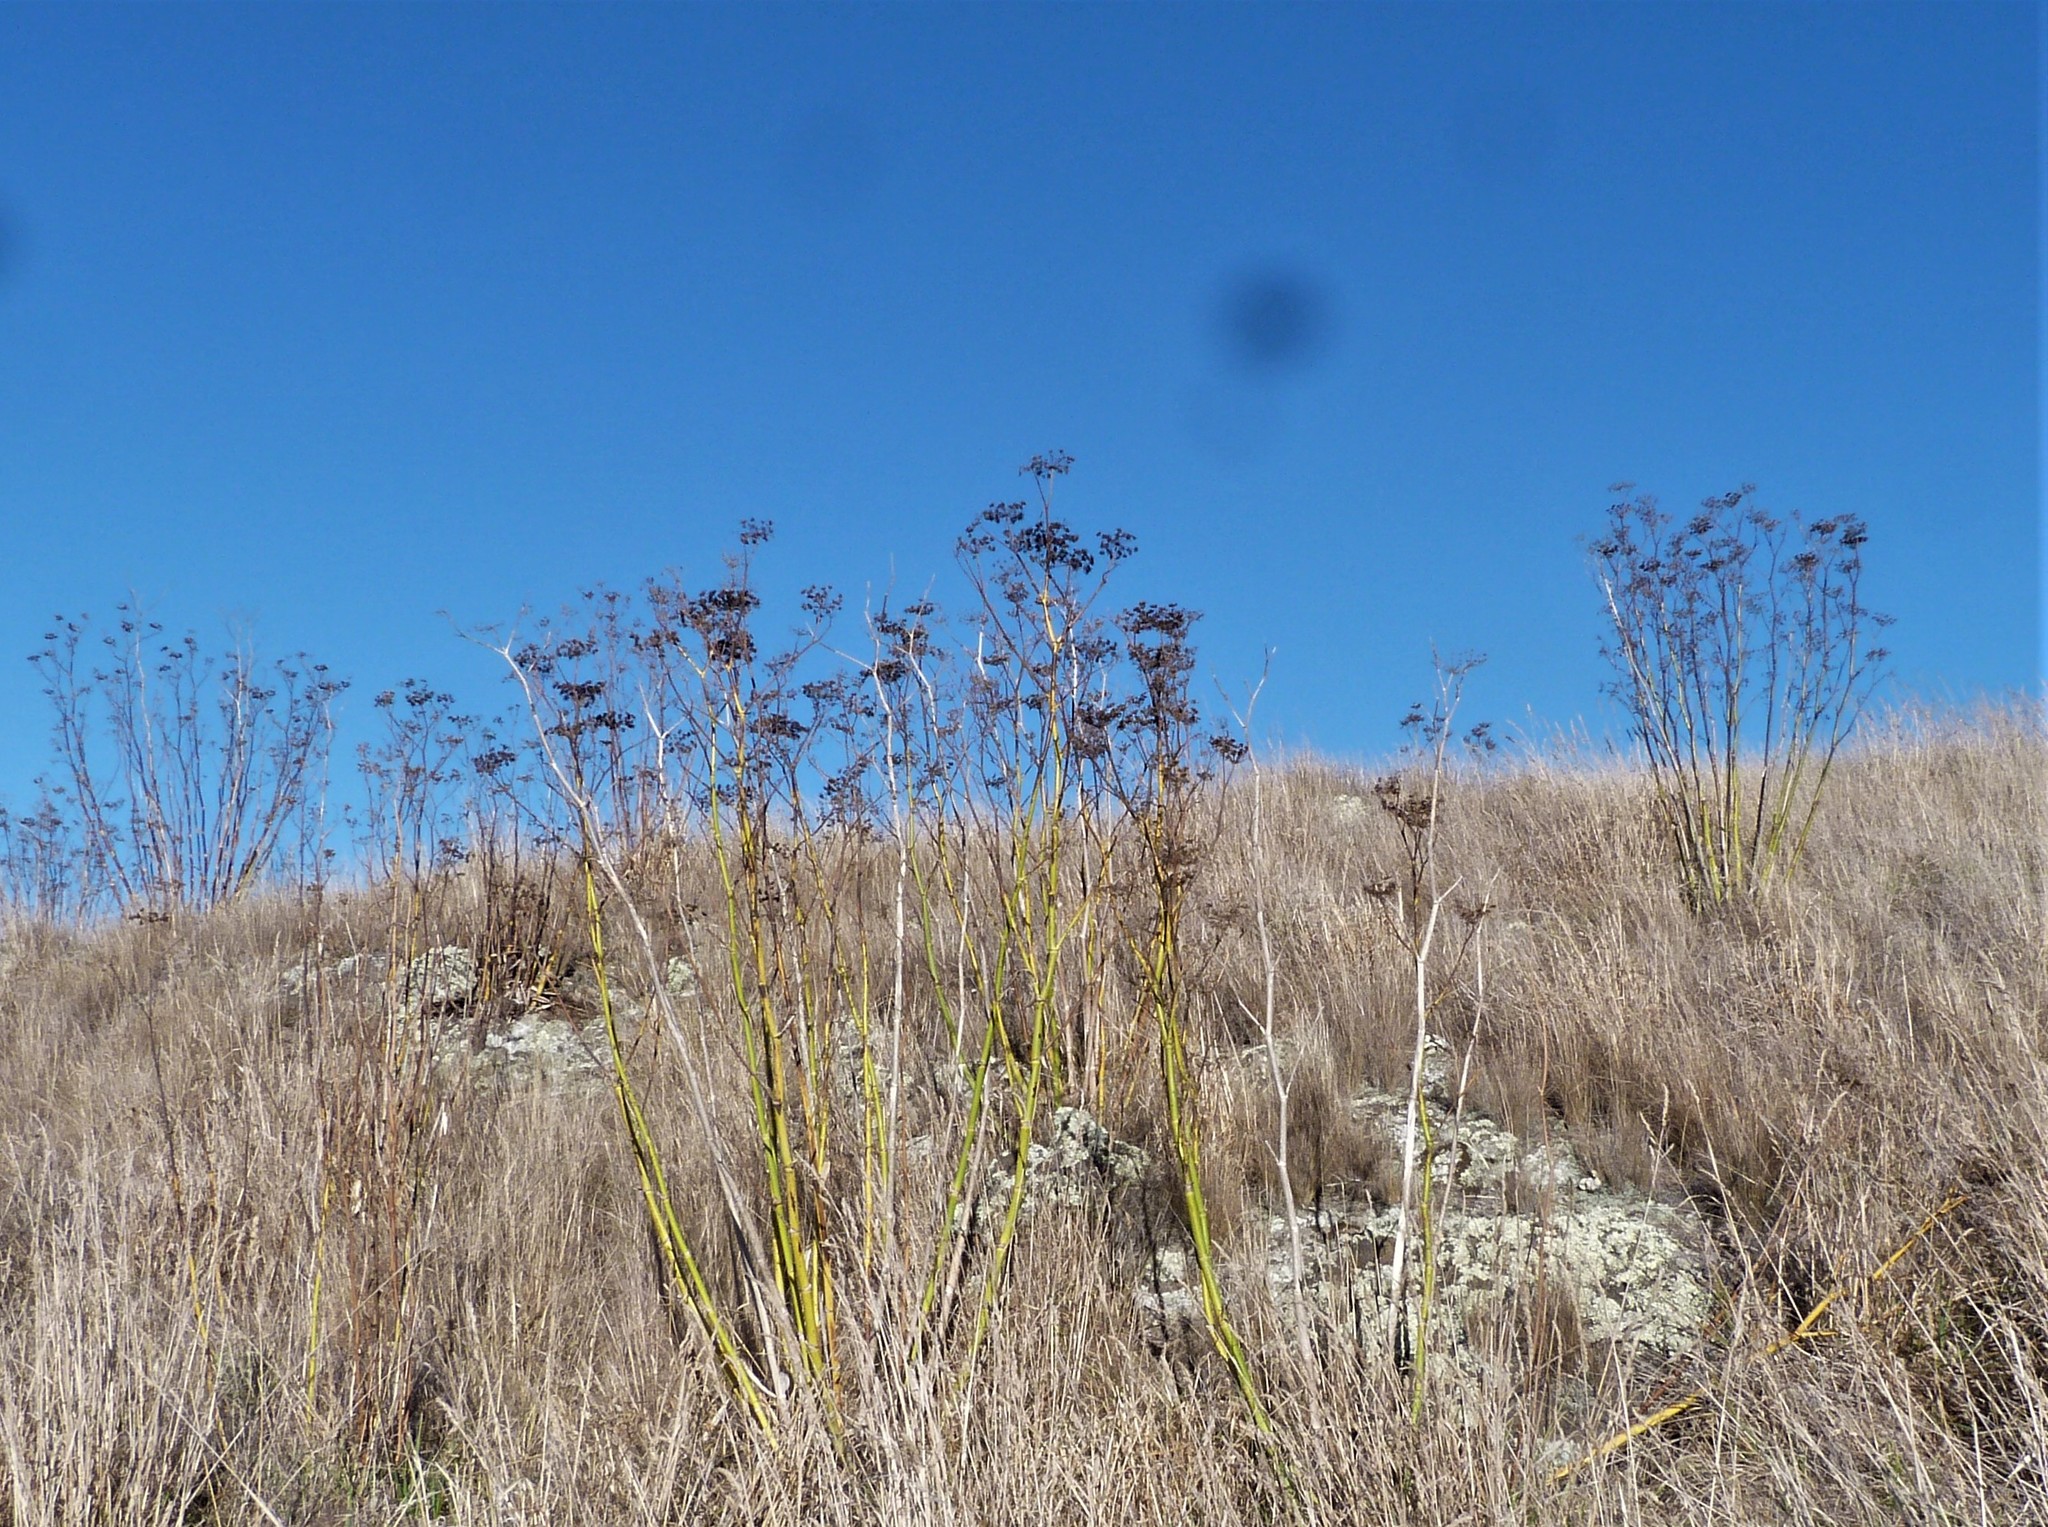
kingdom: Plantae
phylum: Tracheophyta
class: Magnoliopsida
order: Apiales
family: Apiaceae
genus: Foeniculum
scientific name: Foeniculum vulgare
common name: Fennel
